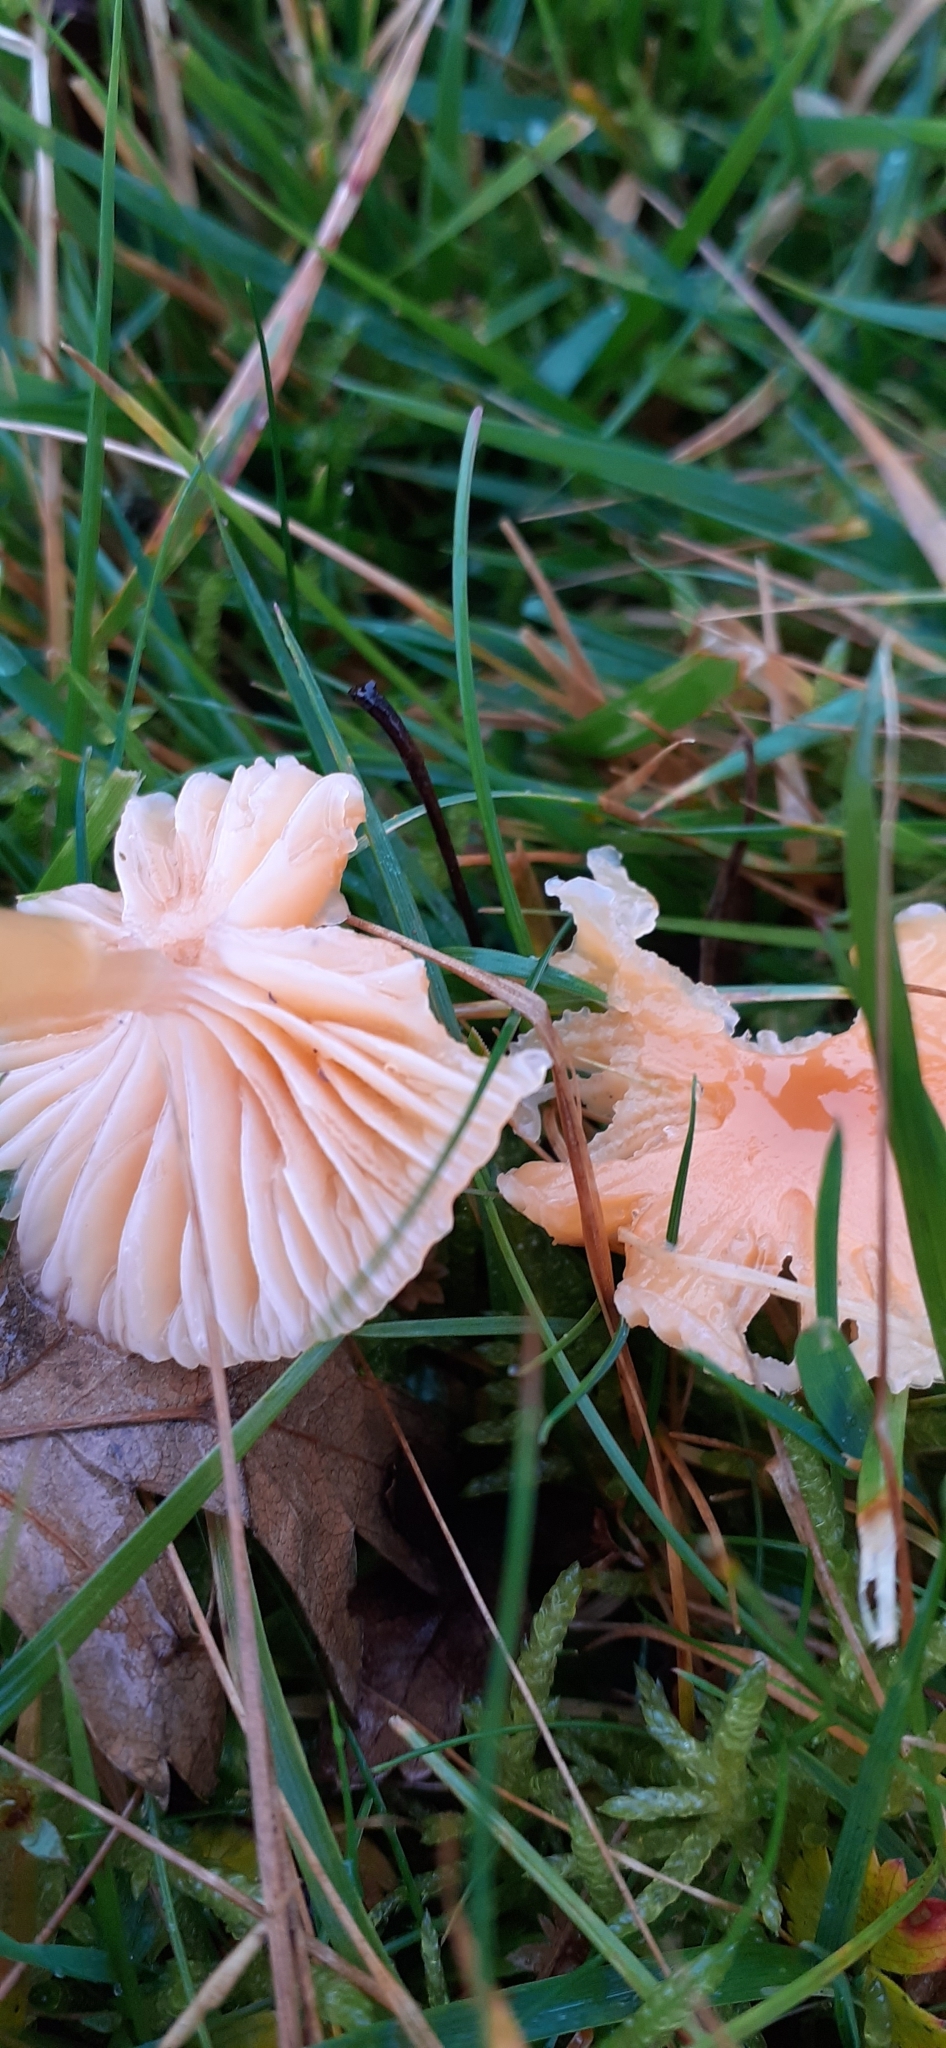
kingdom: Fungi
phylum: Basidiomycota
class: Agaricomycetes
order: Agaricales
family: Hygrophoraceae
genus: Gliophorus
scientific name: Gliophorus laetus
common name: Heath waxcap
